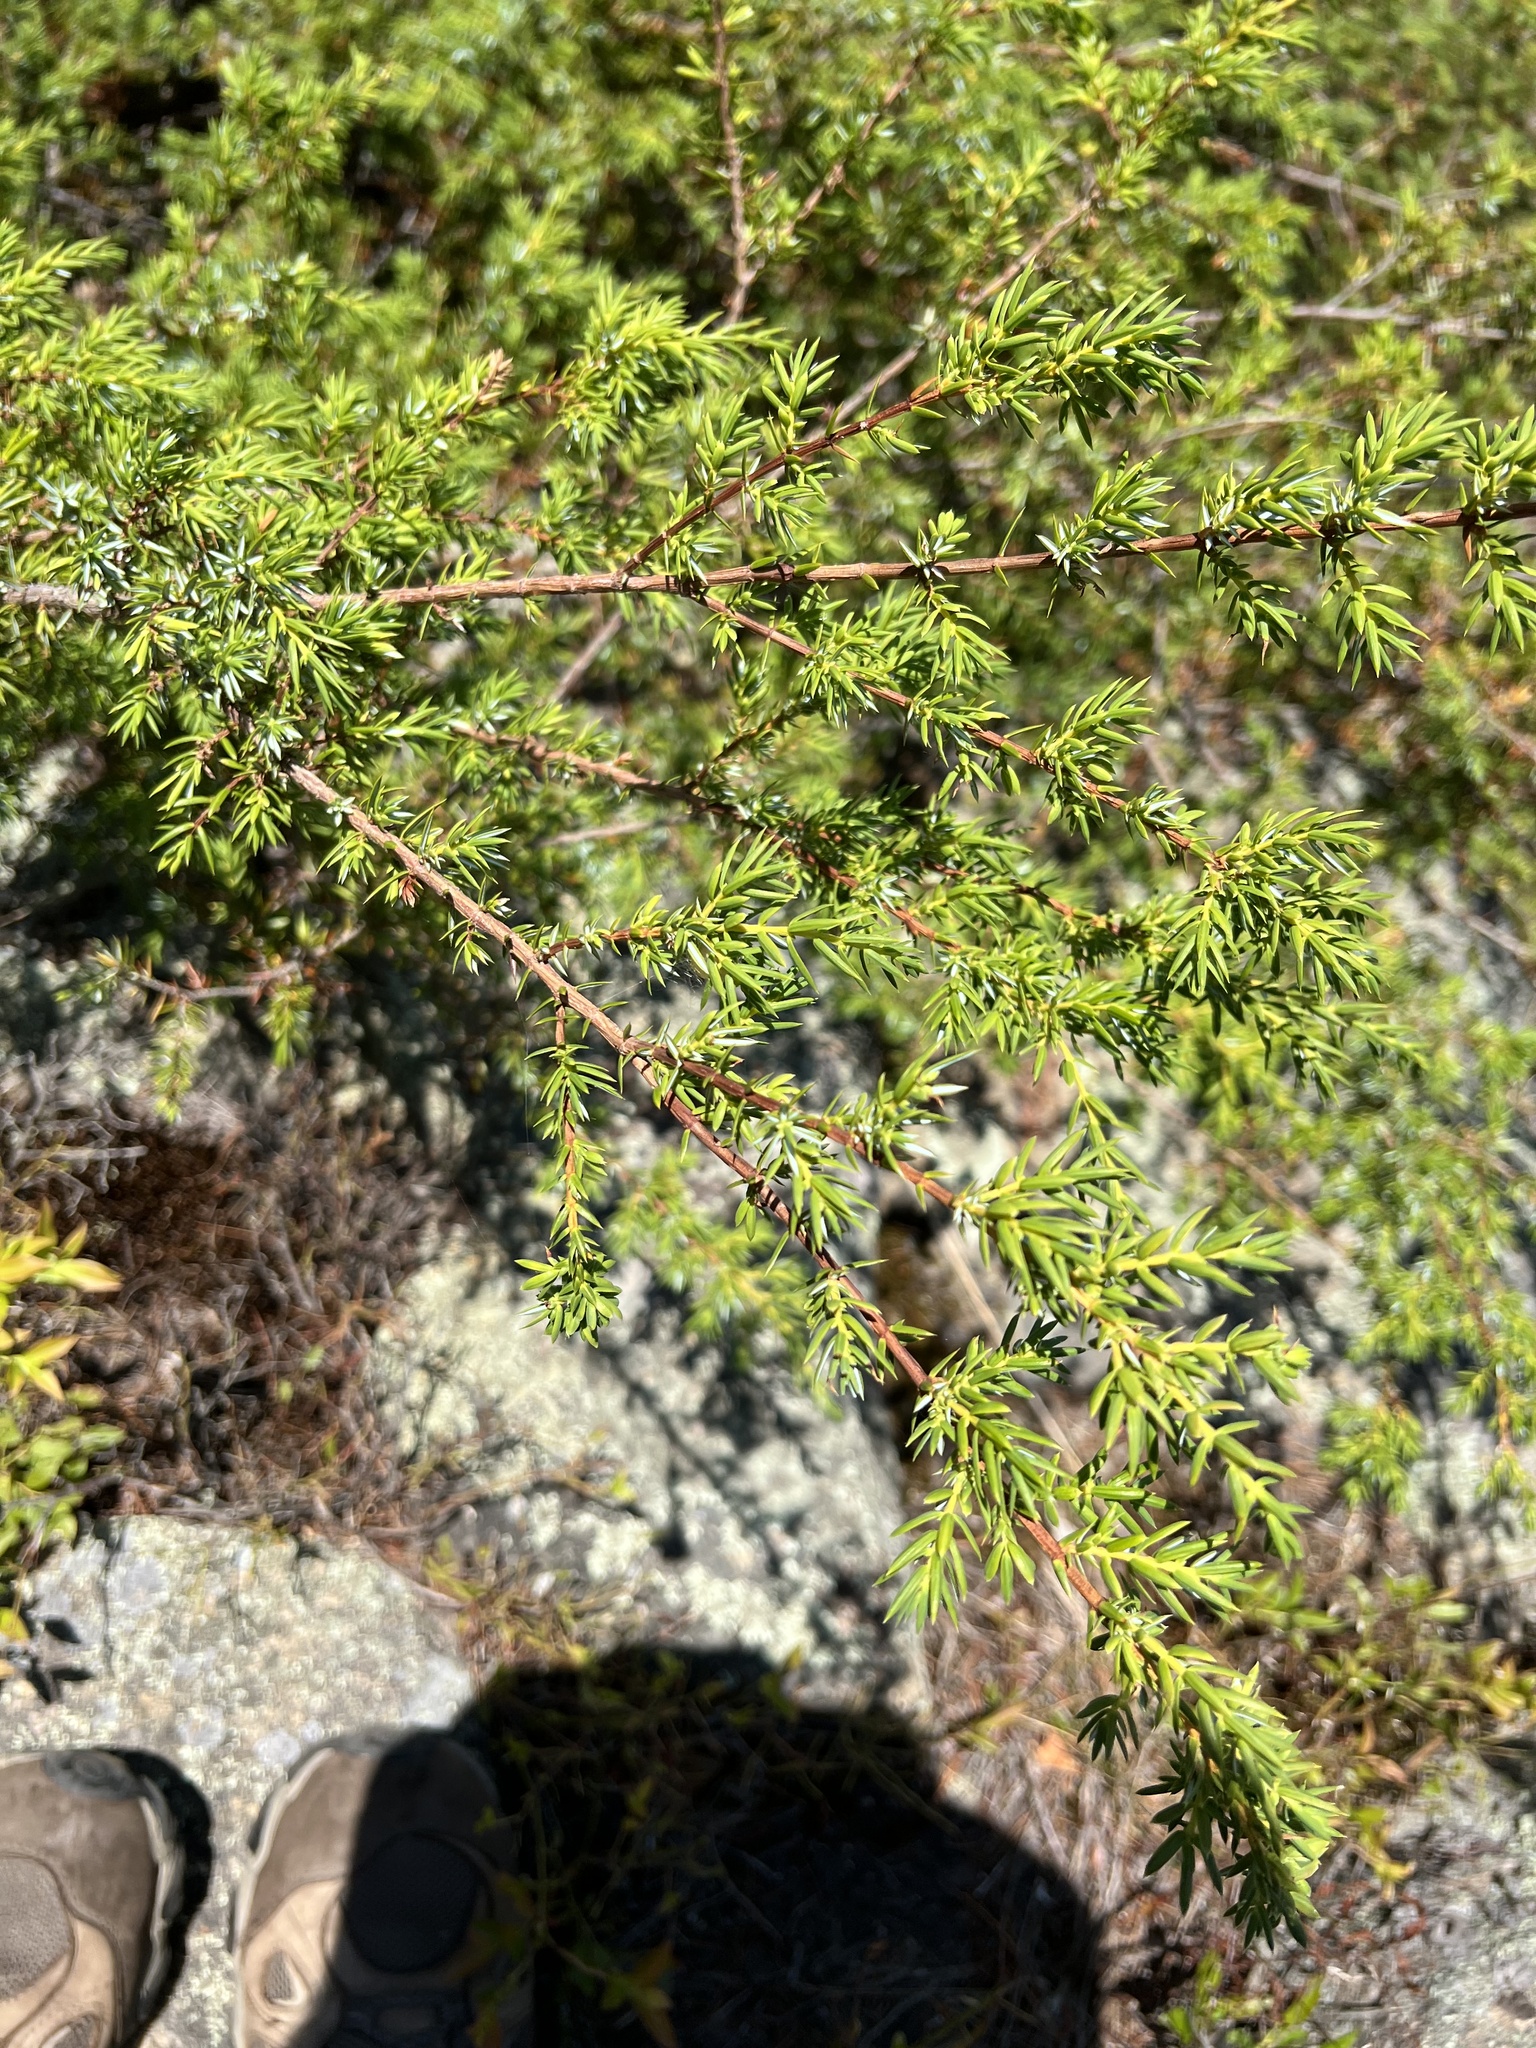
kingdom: Plantae
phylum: Tracheophyta
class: Pinopsida
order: Pinales
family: Cupressaceae
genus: Juniperus
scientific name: Juniperus communis
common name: Common juniper
